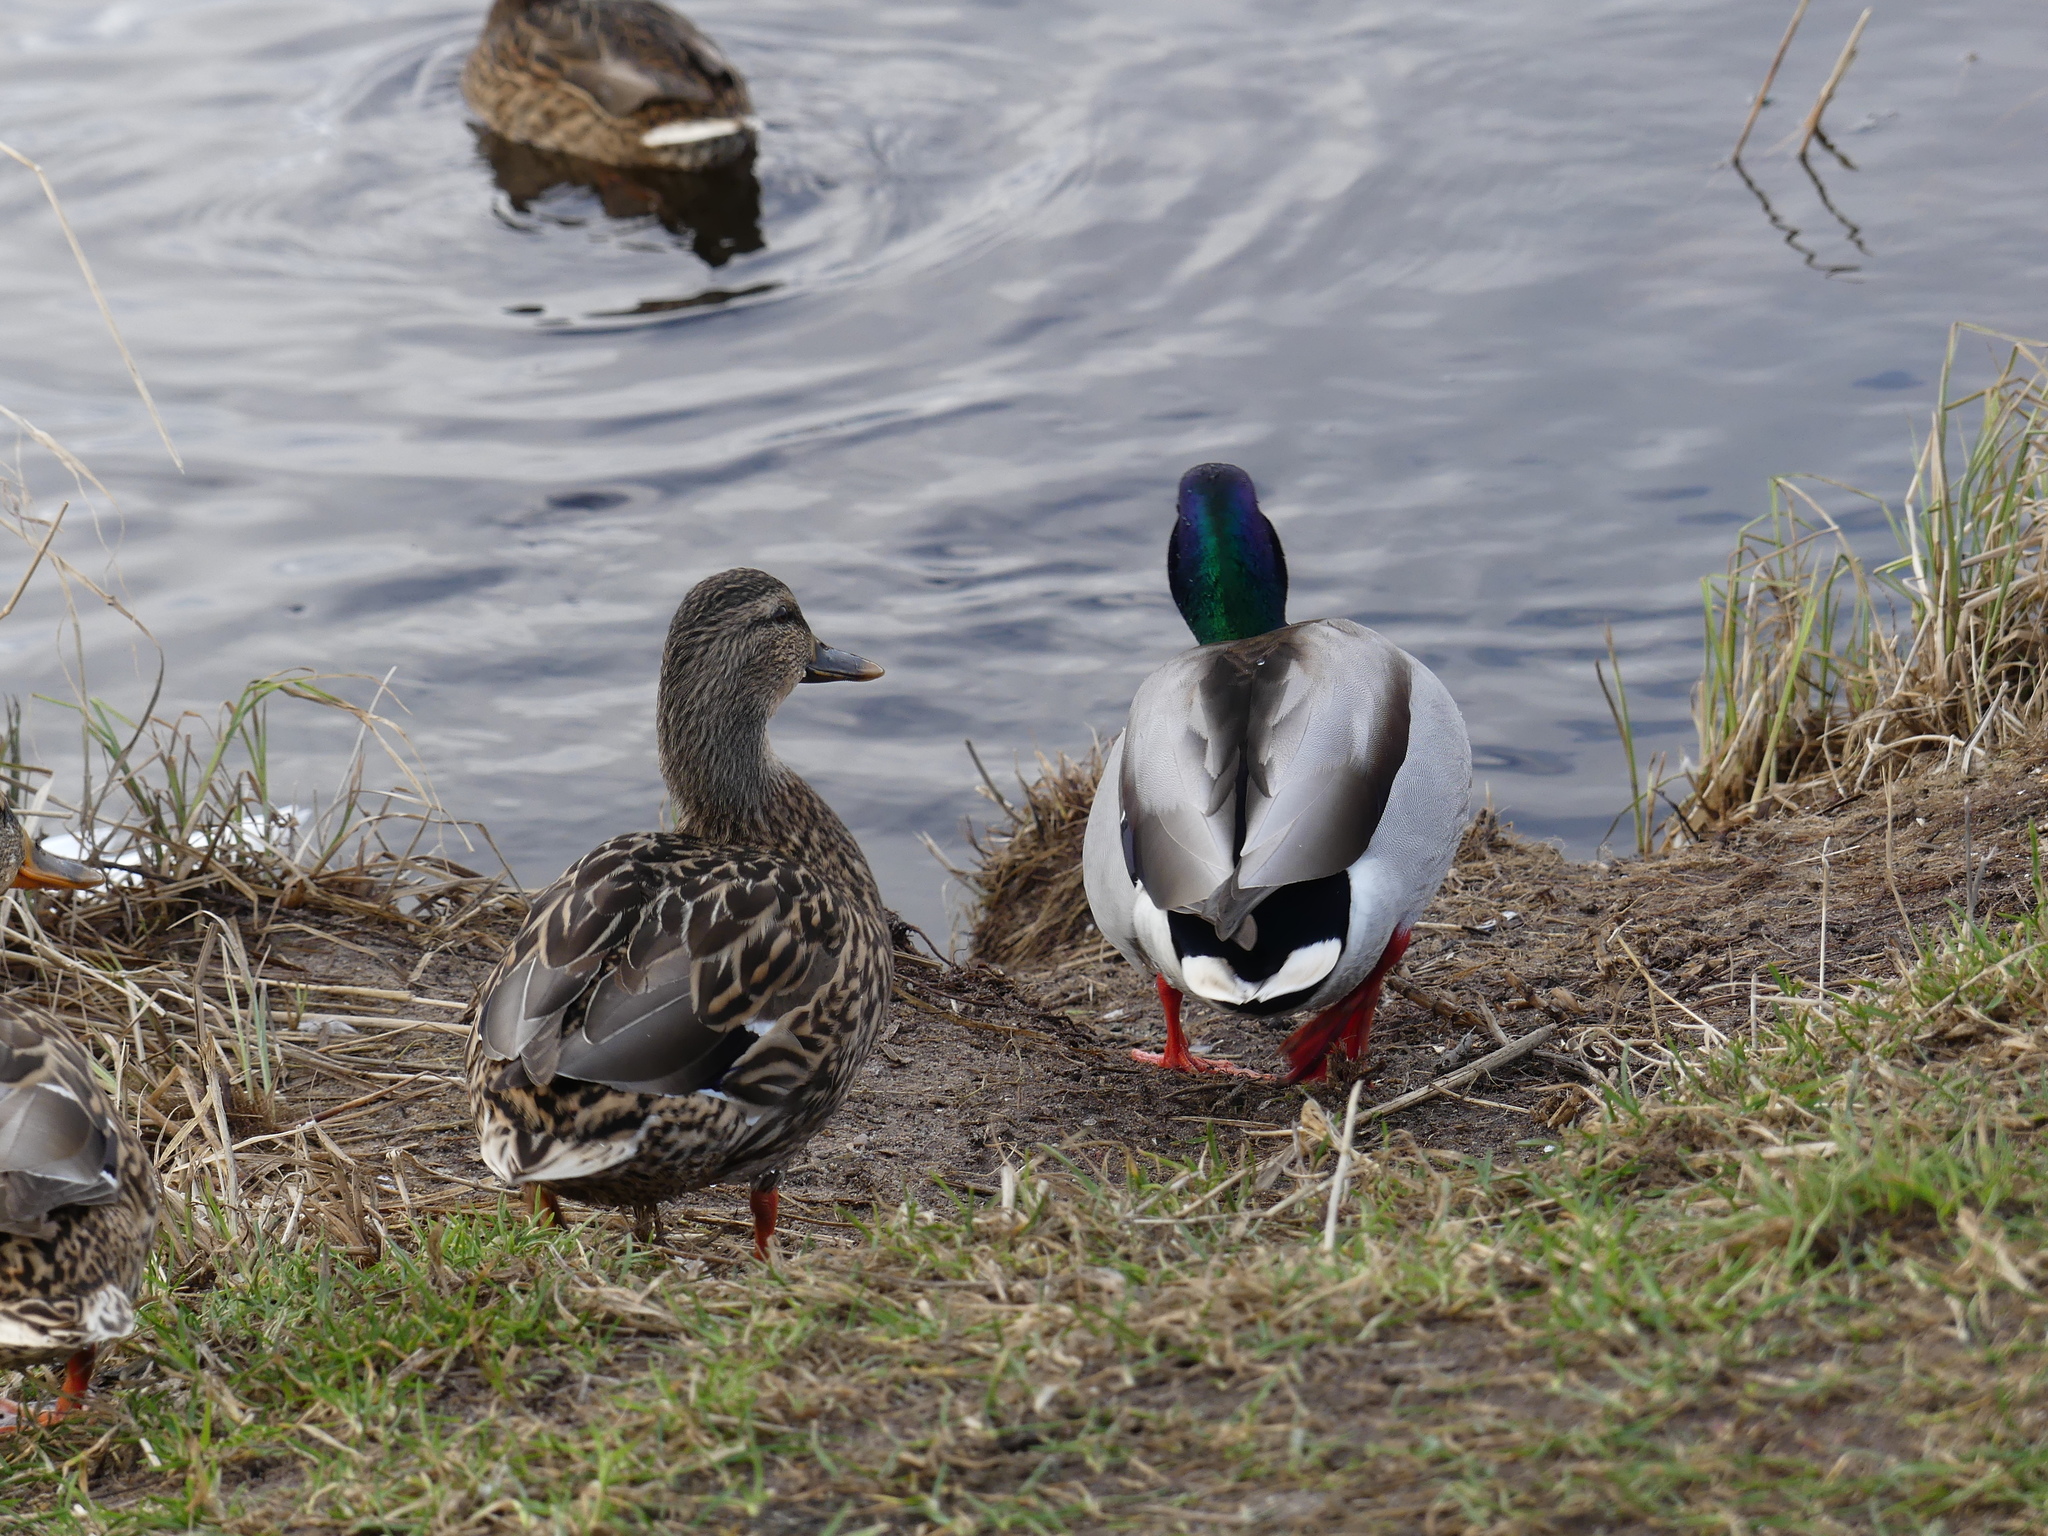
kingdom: Animalia
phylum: Chordata
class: Aves
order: Anseriformes
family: Anatidae
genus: Anas
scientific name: Anas platyrhynchos
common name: Mallard
